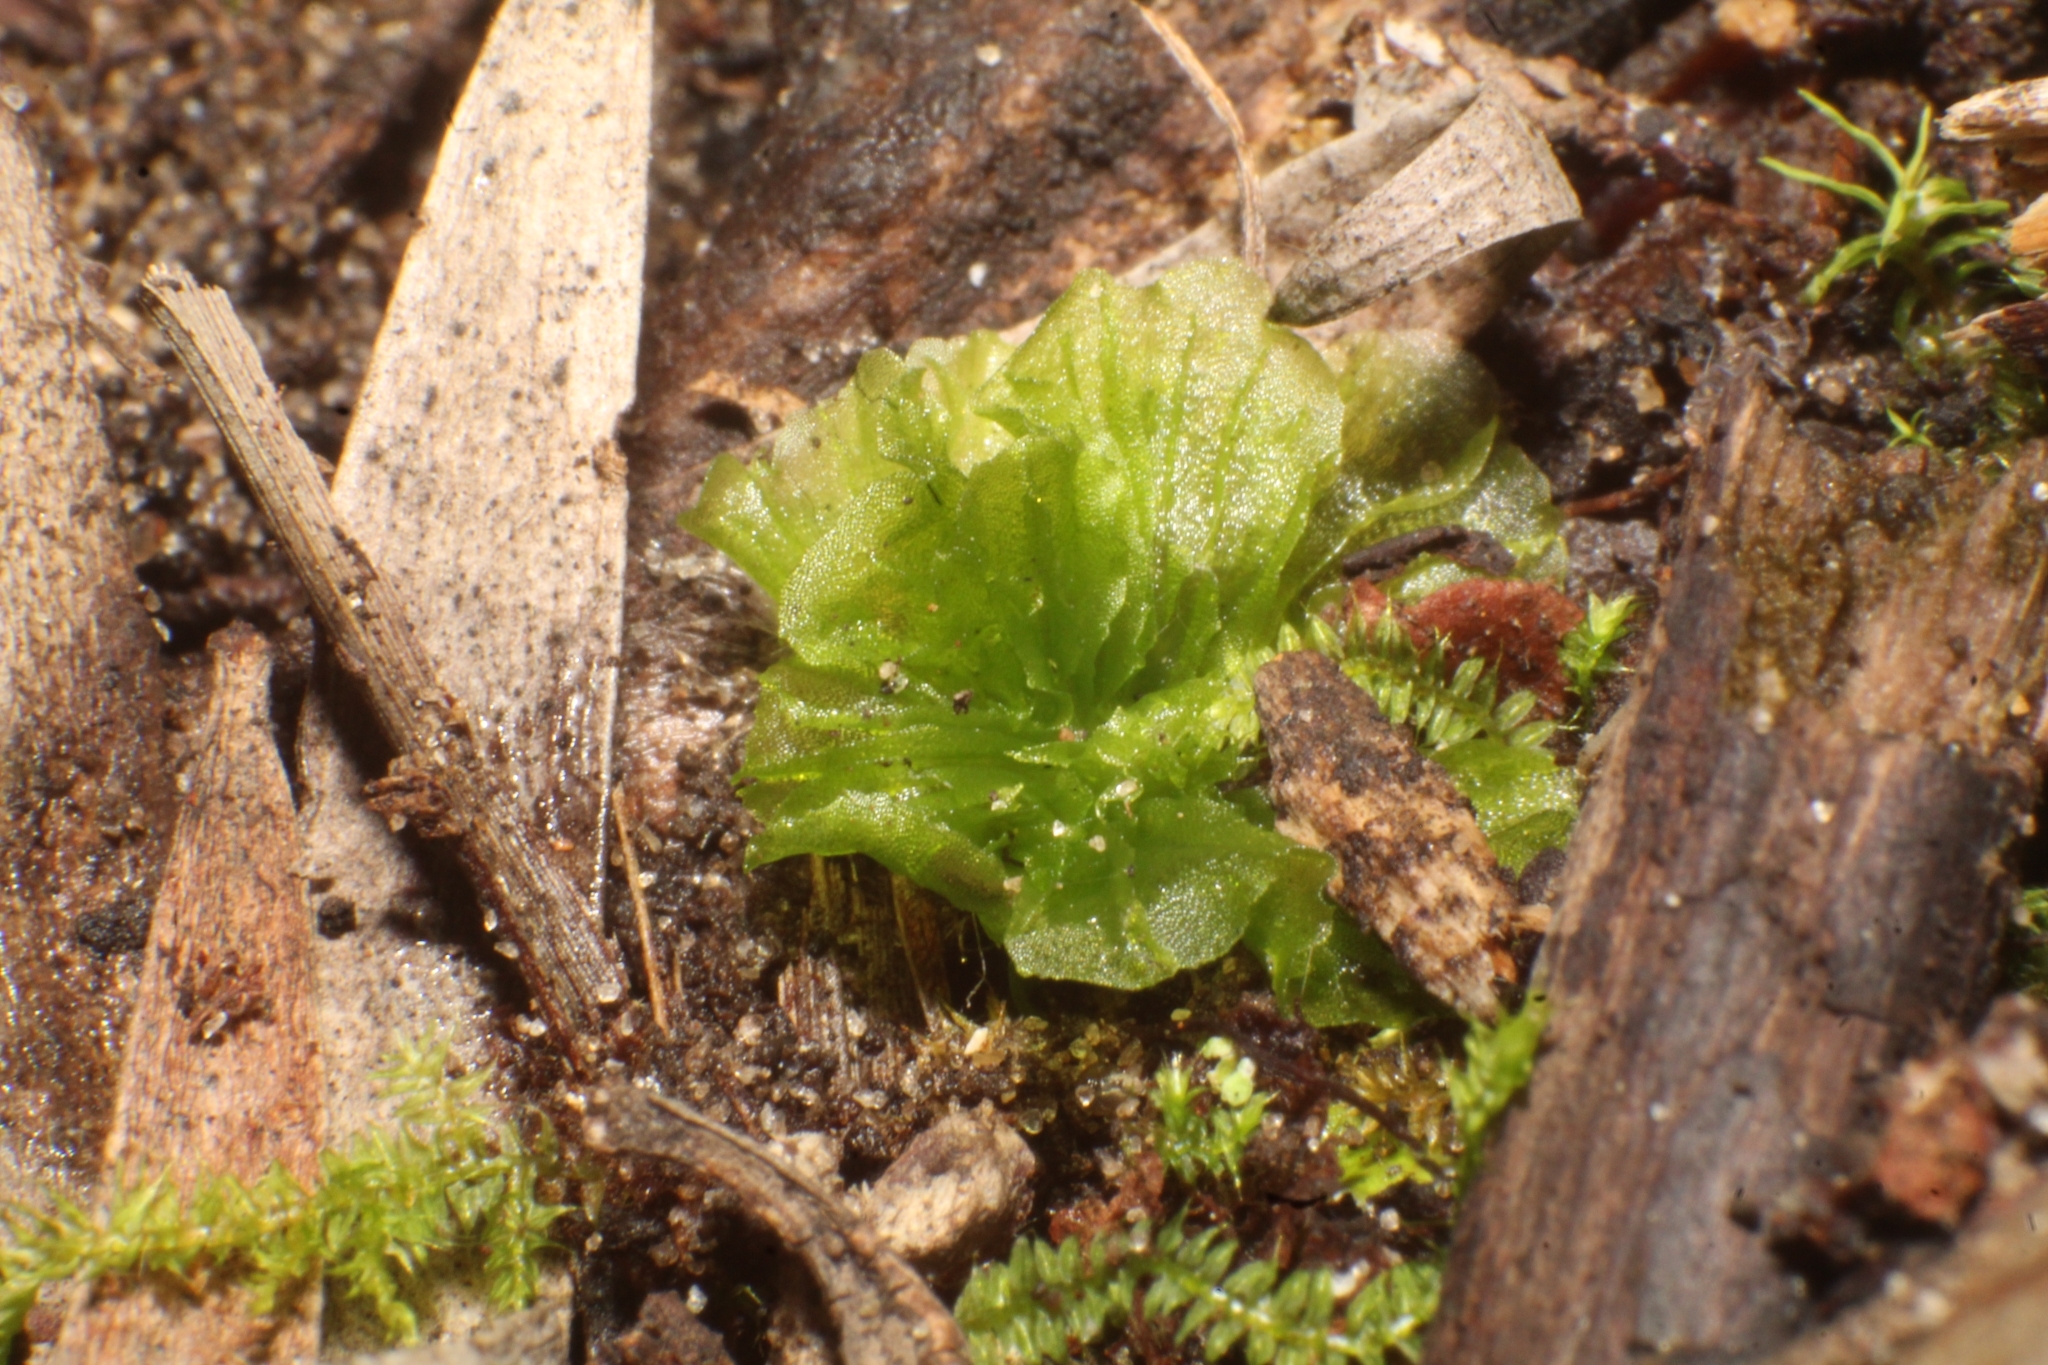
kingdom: Plantae
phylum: Marchantiophyta
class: Jungermanniopsida
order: Fossombroniales
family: Petalophyllaceae
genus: Petalophyllum
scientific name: Petalophyllum preissii
